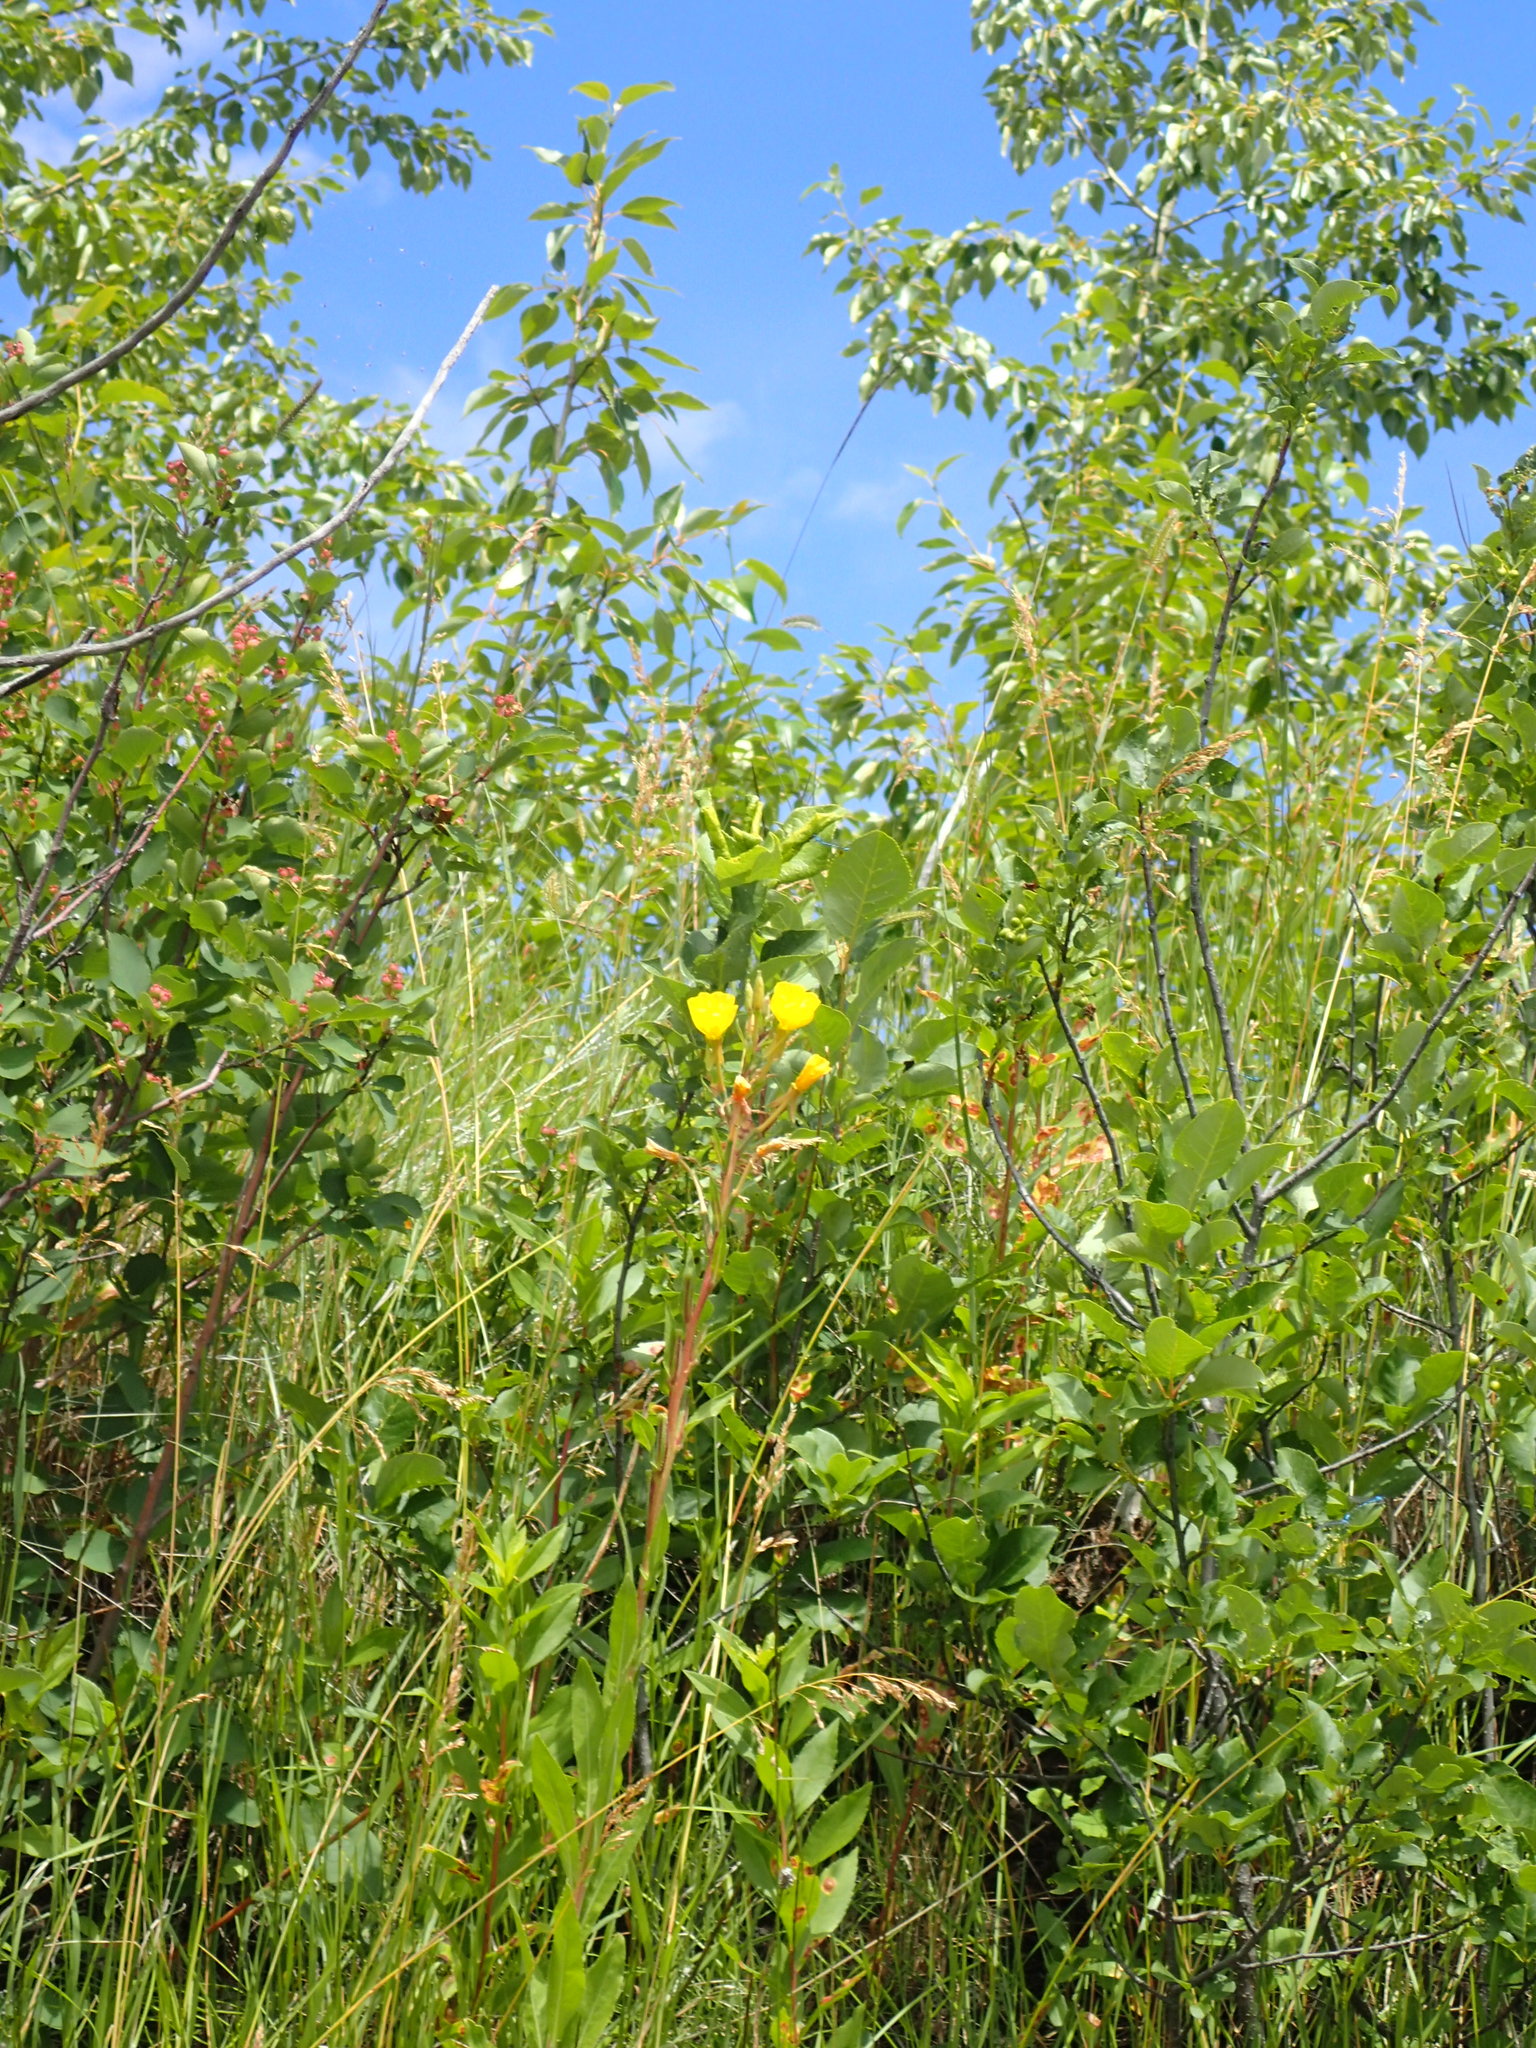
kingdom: Plantae
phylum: Tracheophyta
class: Magnoliopsida
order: Myrtales
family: Onagraceae
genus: Oenothera
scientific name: Oenothera biennis
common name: Common evening-primrose
